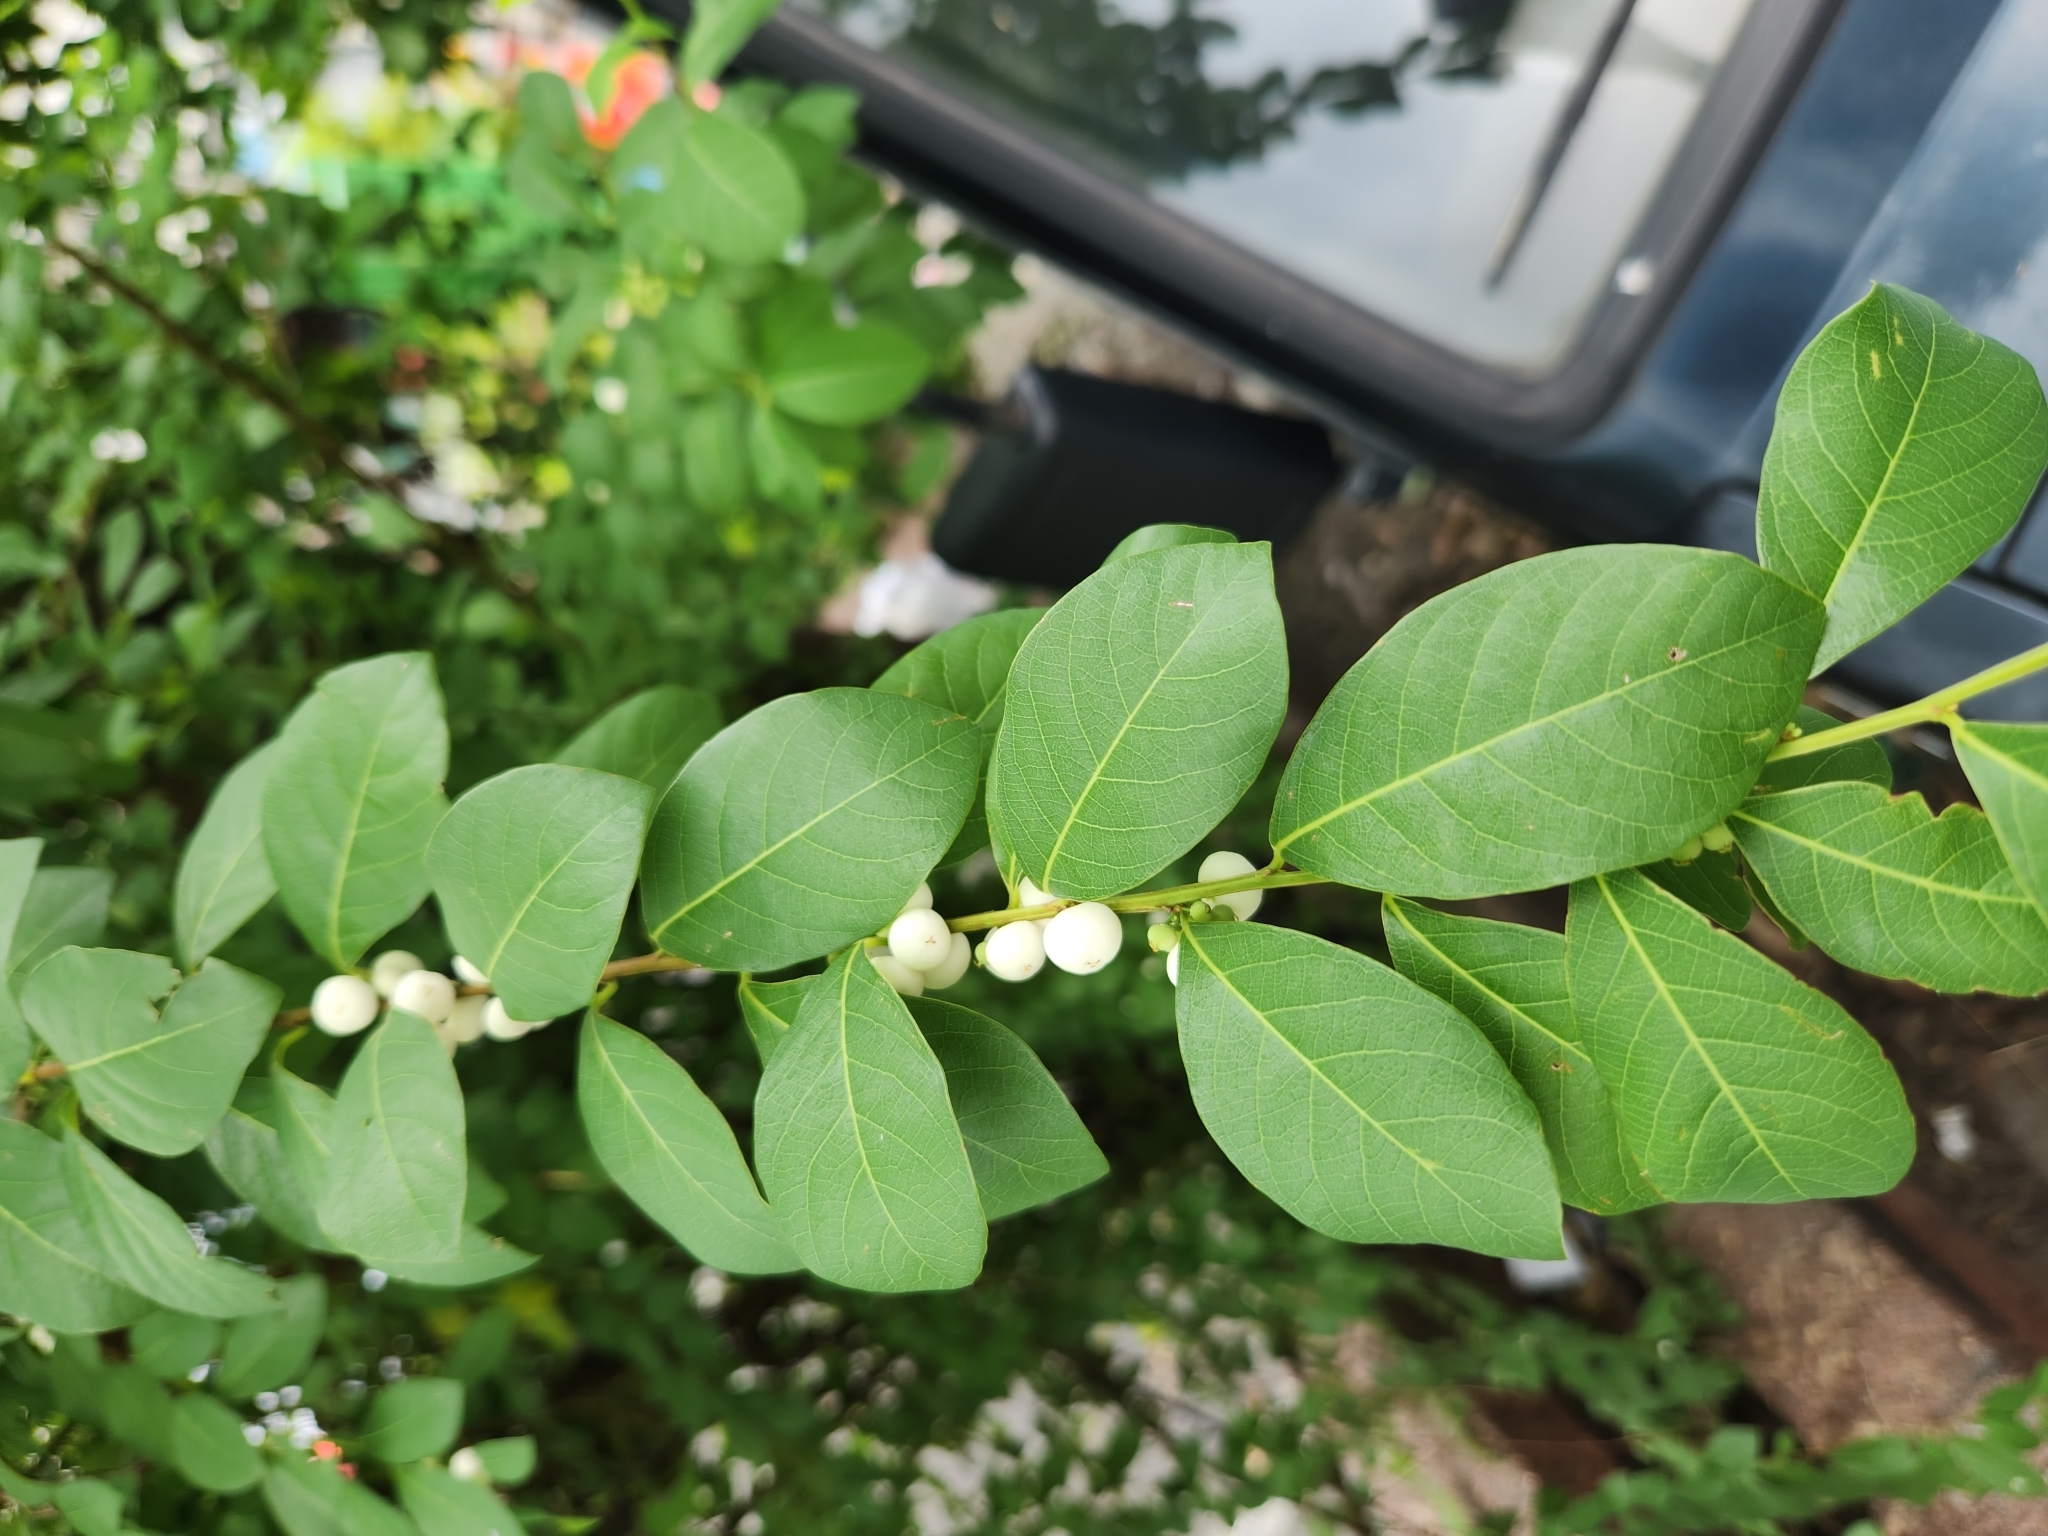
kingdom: Plantae
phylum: Tracheophyta
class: Magnoliopsida
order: Malpighiales
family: Phyllanthaceae
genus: Flueggea
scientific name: Flueggea virosa
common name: Common bushweed
